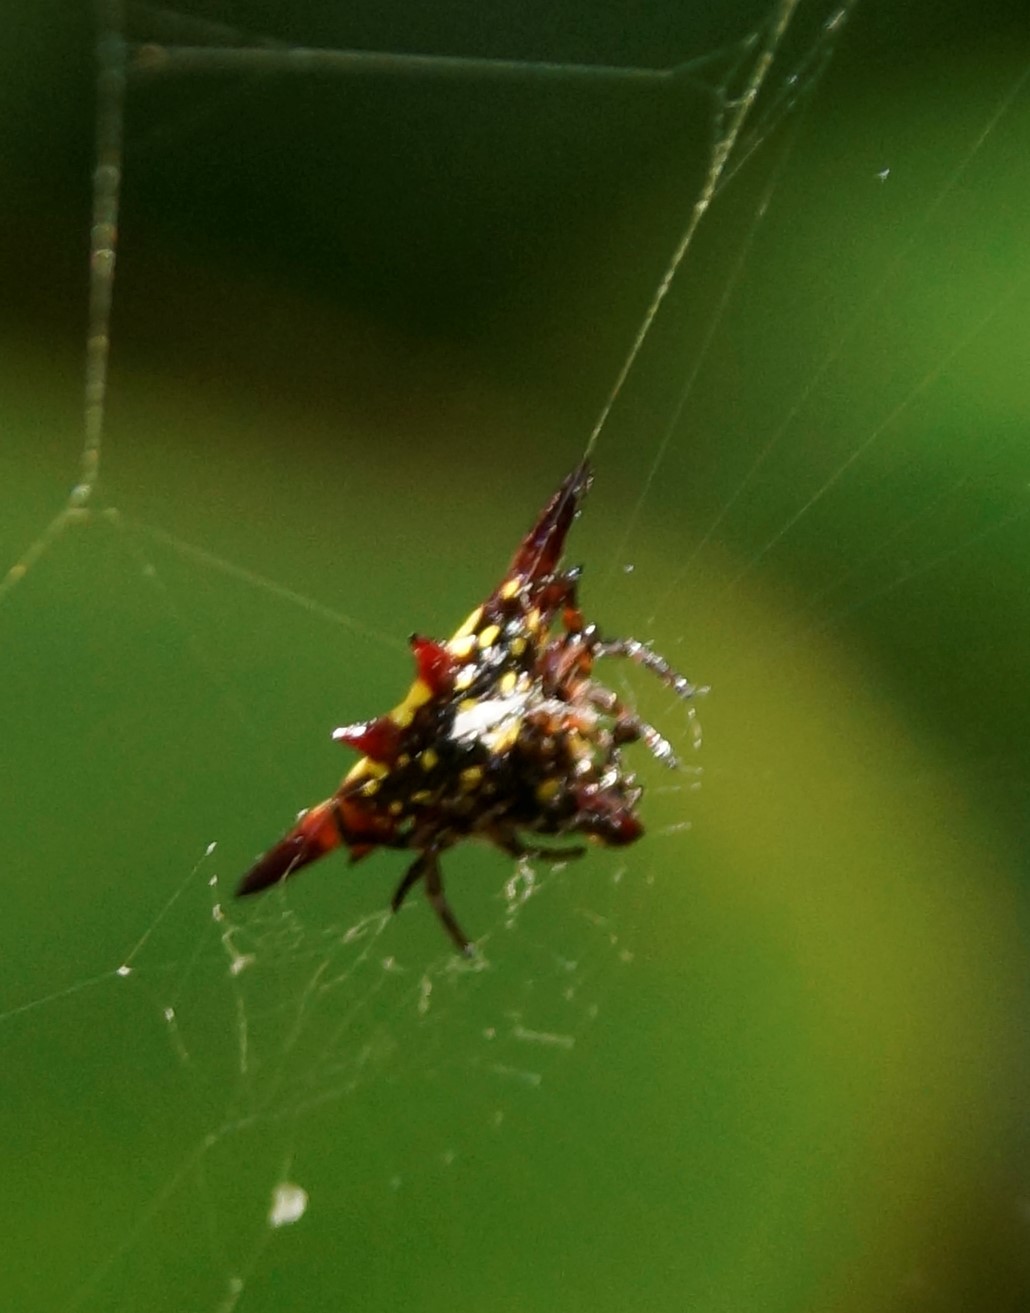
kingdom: Animalia
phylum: Arthropoda
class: Arachnida
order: Araneae
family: Araneidae
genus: Gasteracantha
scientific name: Gasteracantha fornicata
